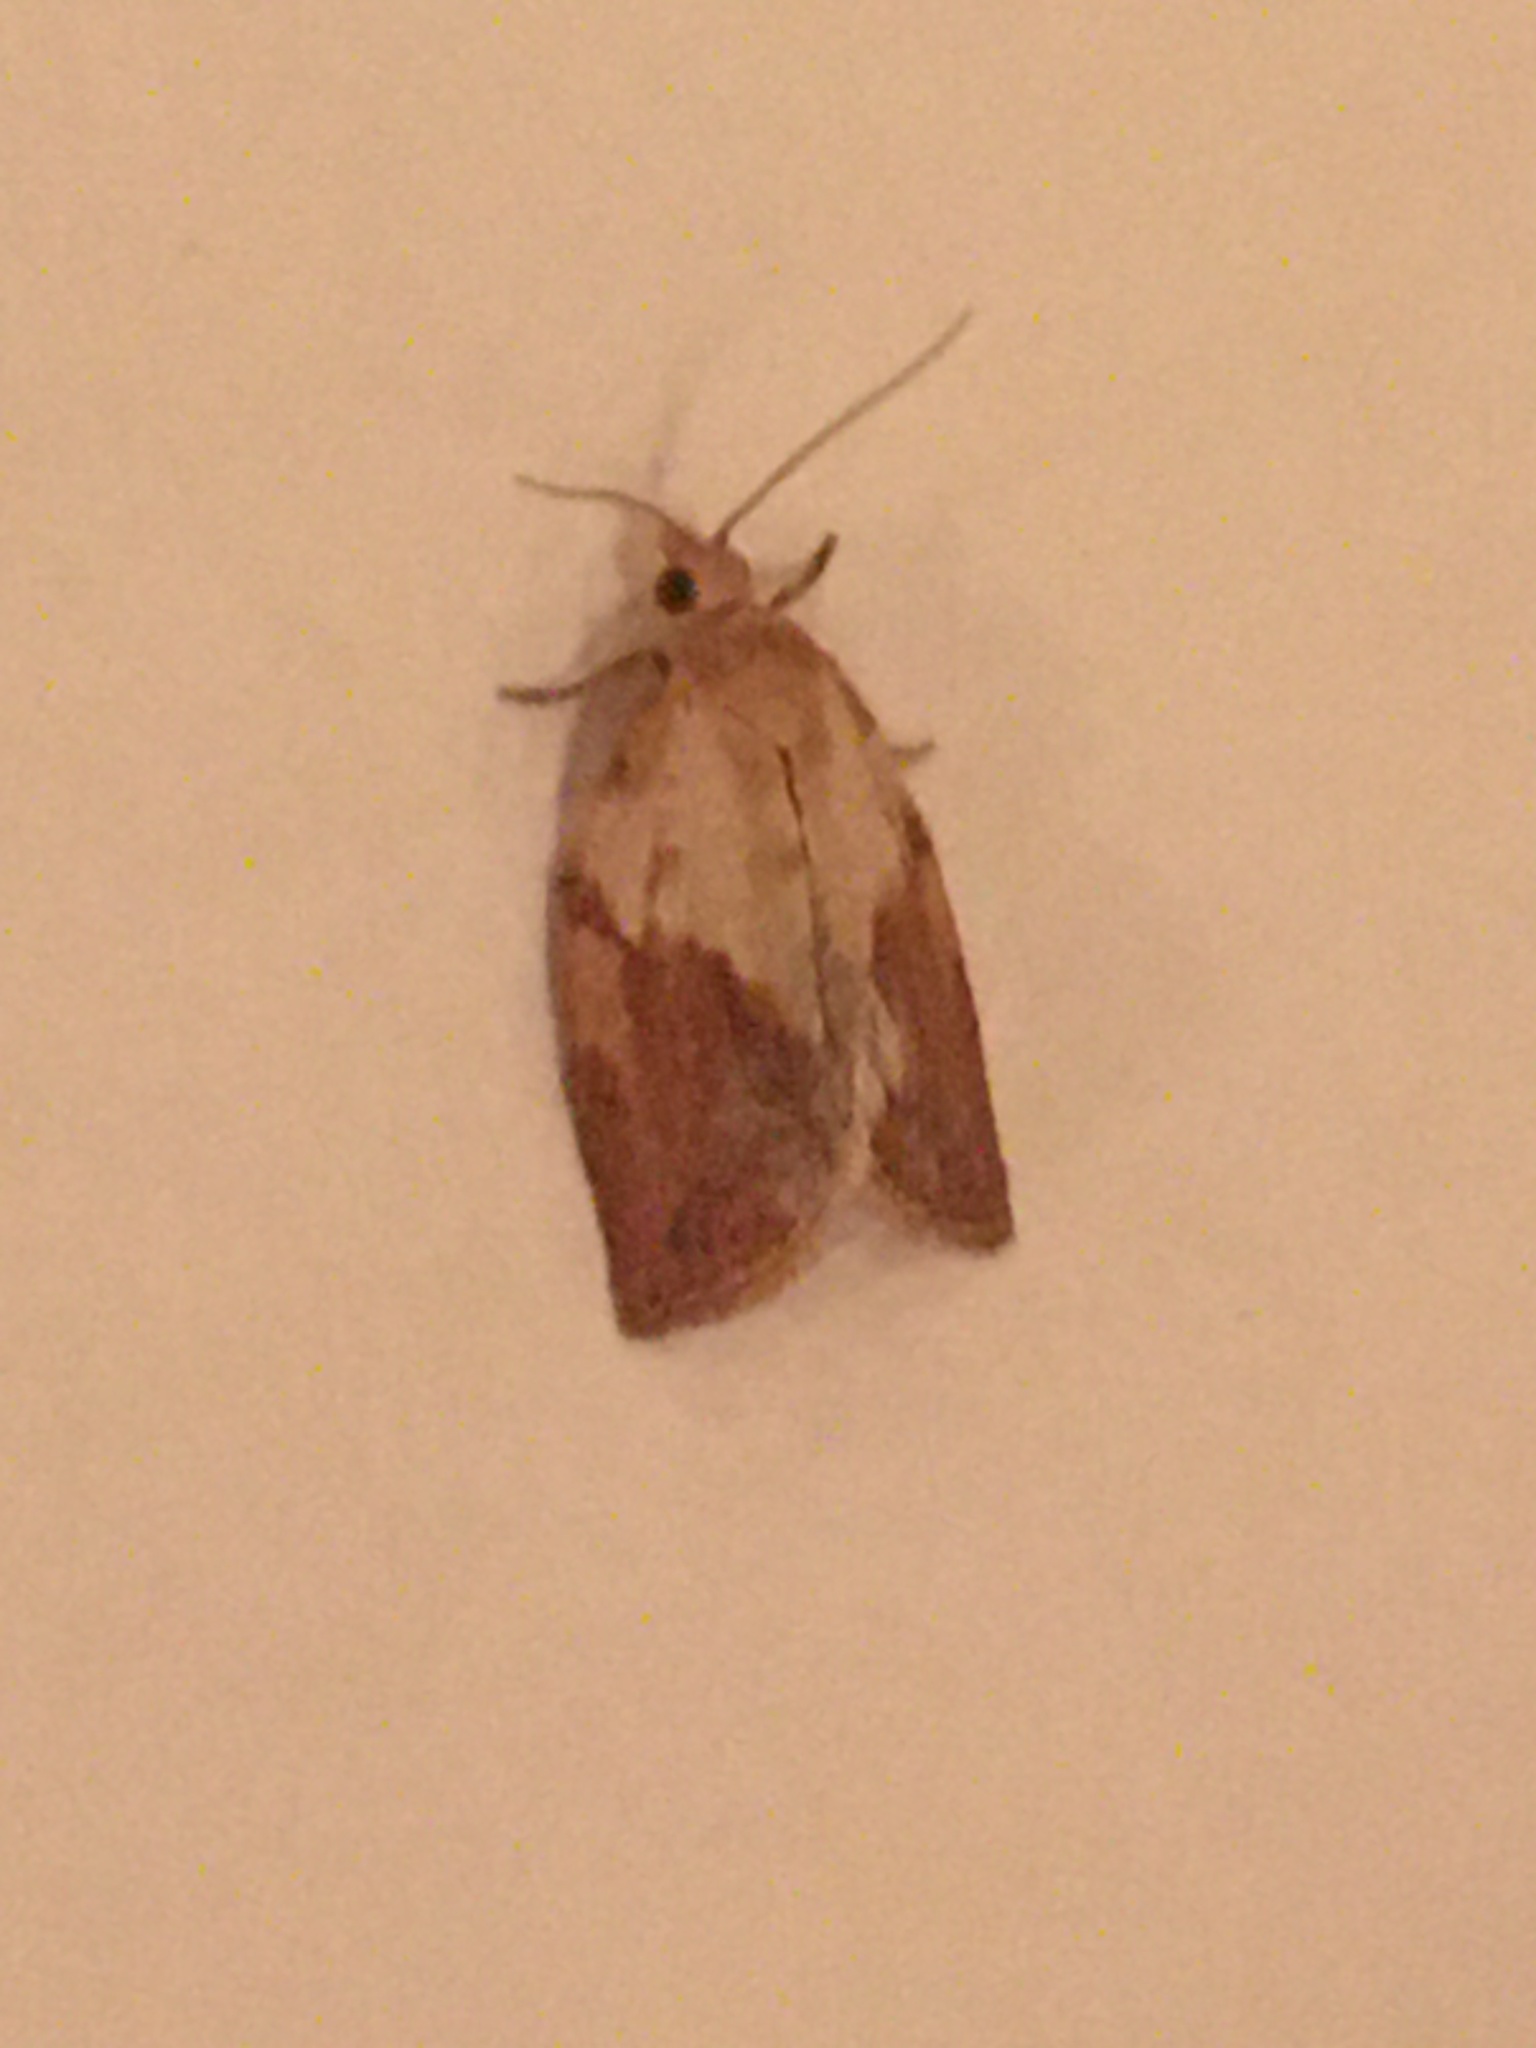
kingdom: Animalia
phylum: Arthropoda
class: Insecta
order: Lepidoptera
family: Tortricidae
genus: Epiphyas
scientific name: Epiphyas postvittana
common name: Light brown apple moth
